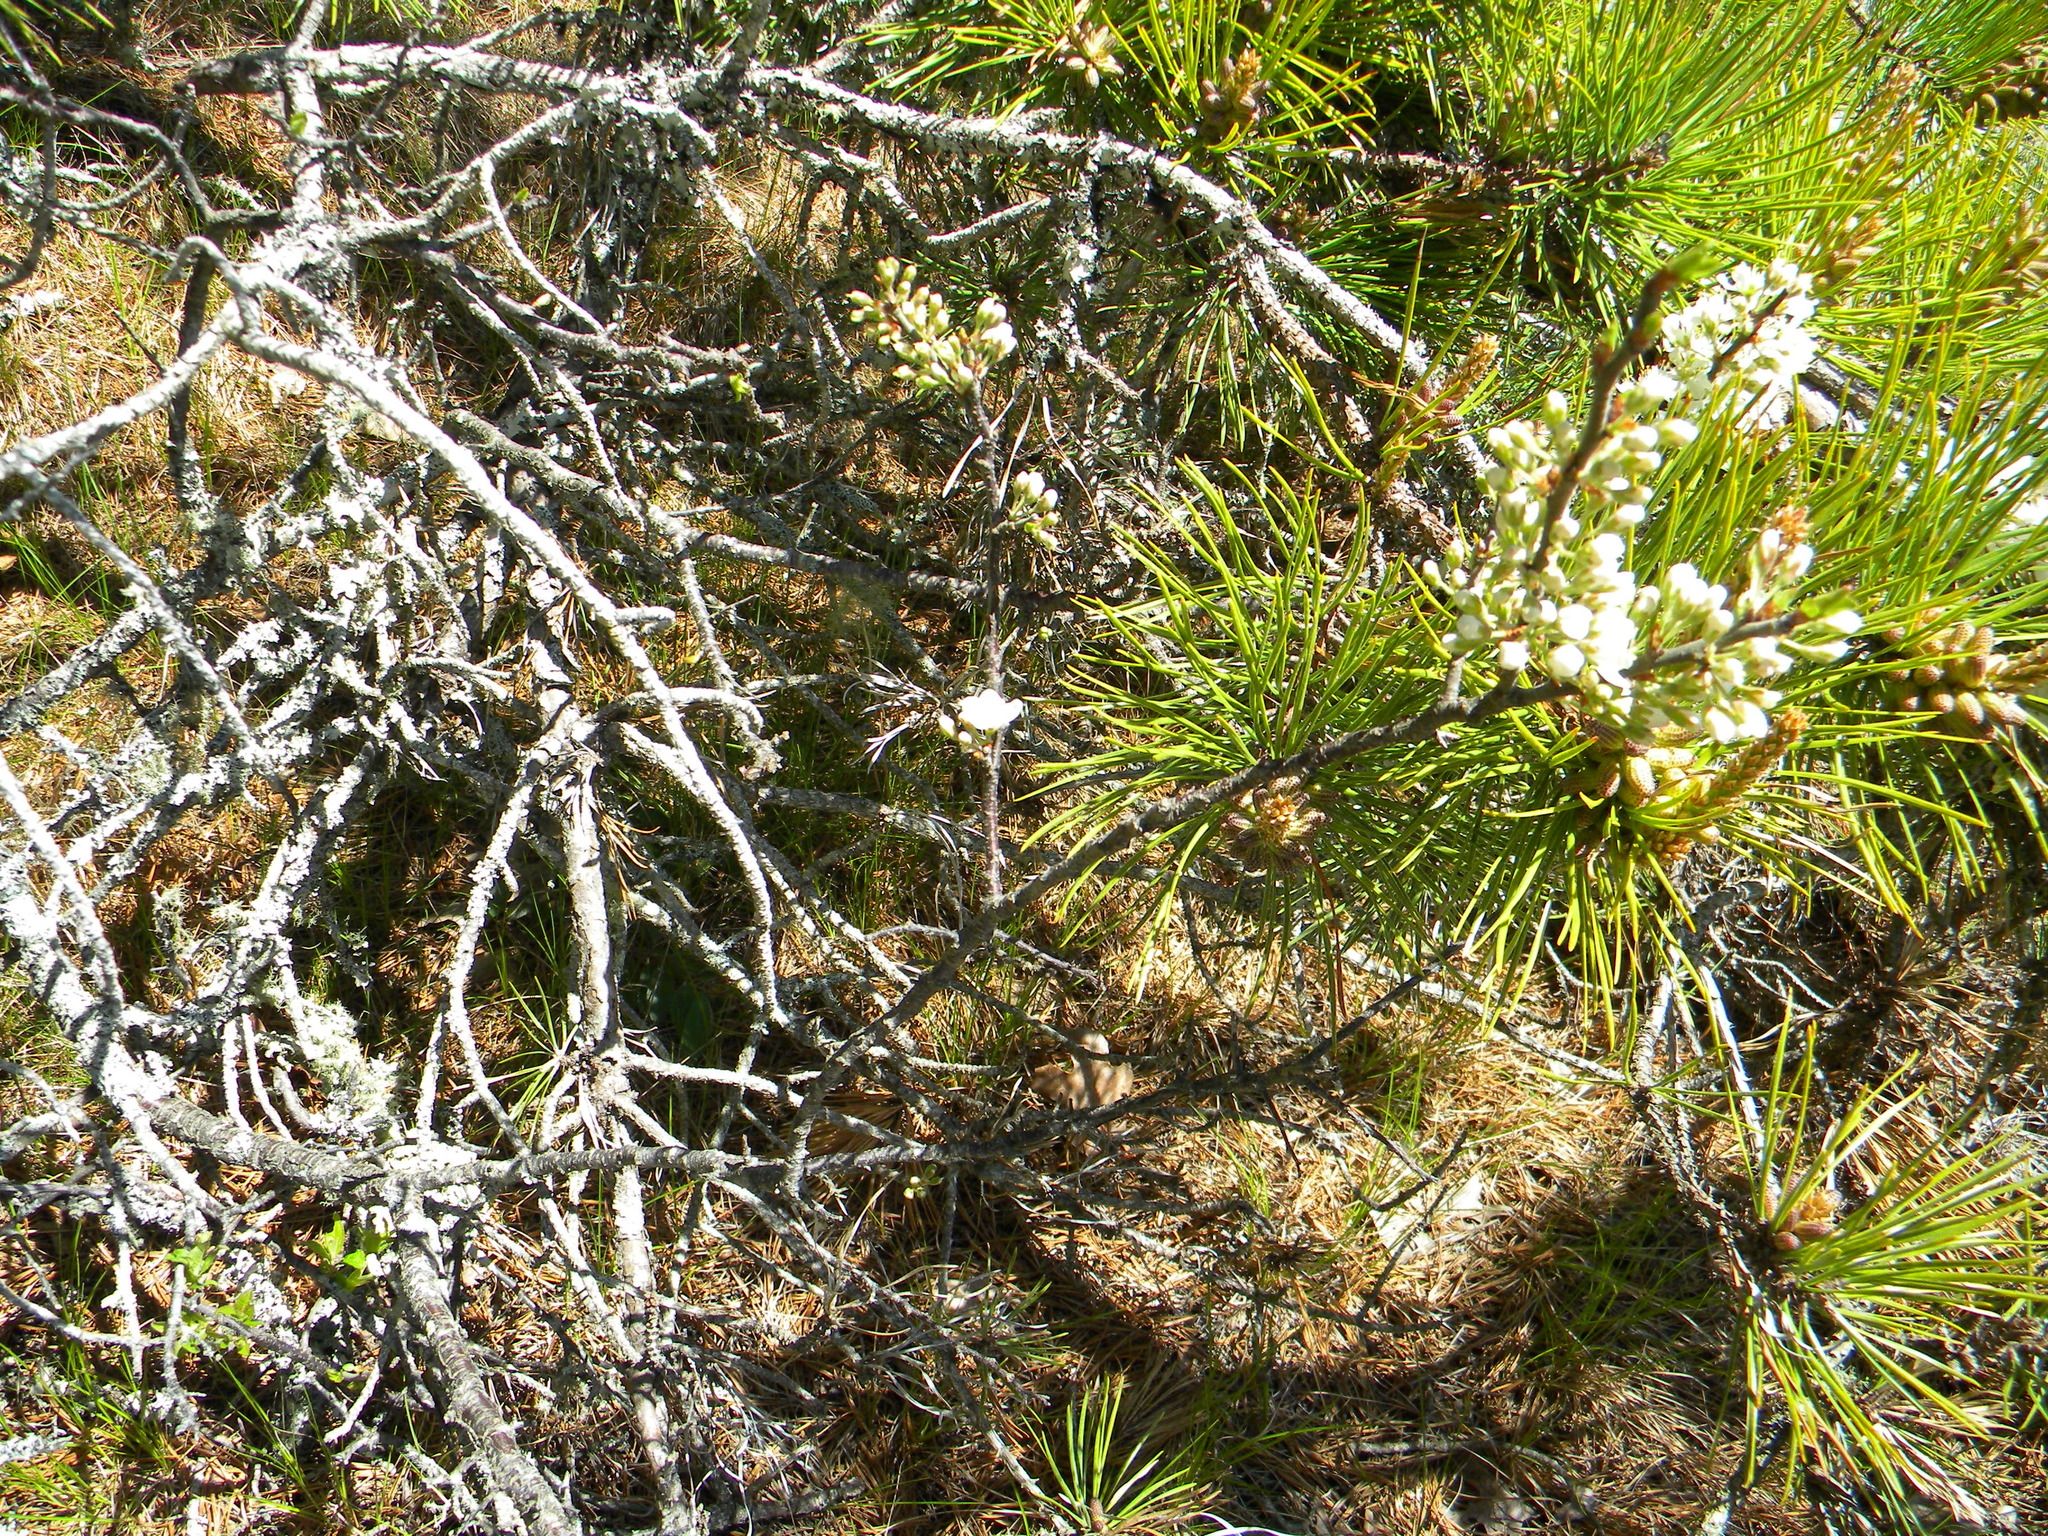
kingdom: Plantae
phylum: Tracheophyta
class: Magnoliopsida
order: Rosales
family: Rosaceae
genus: Prunus
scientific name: Prunus maritima
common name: Beach plum
